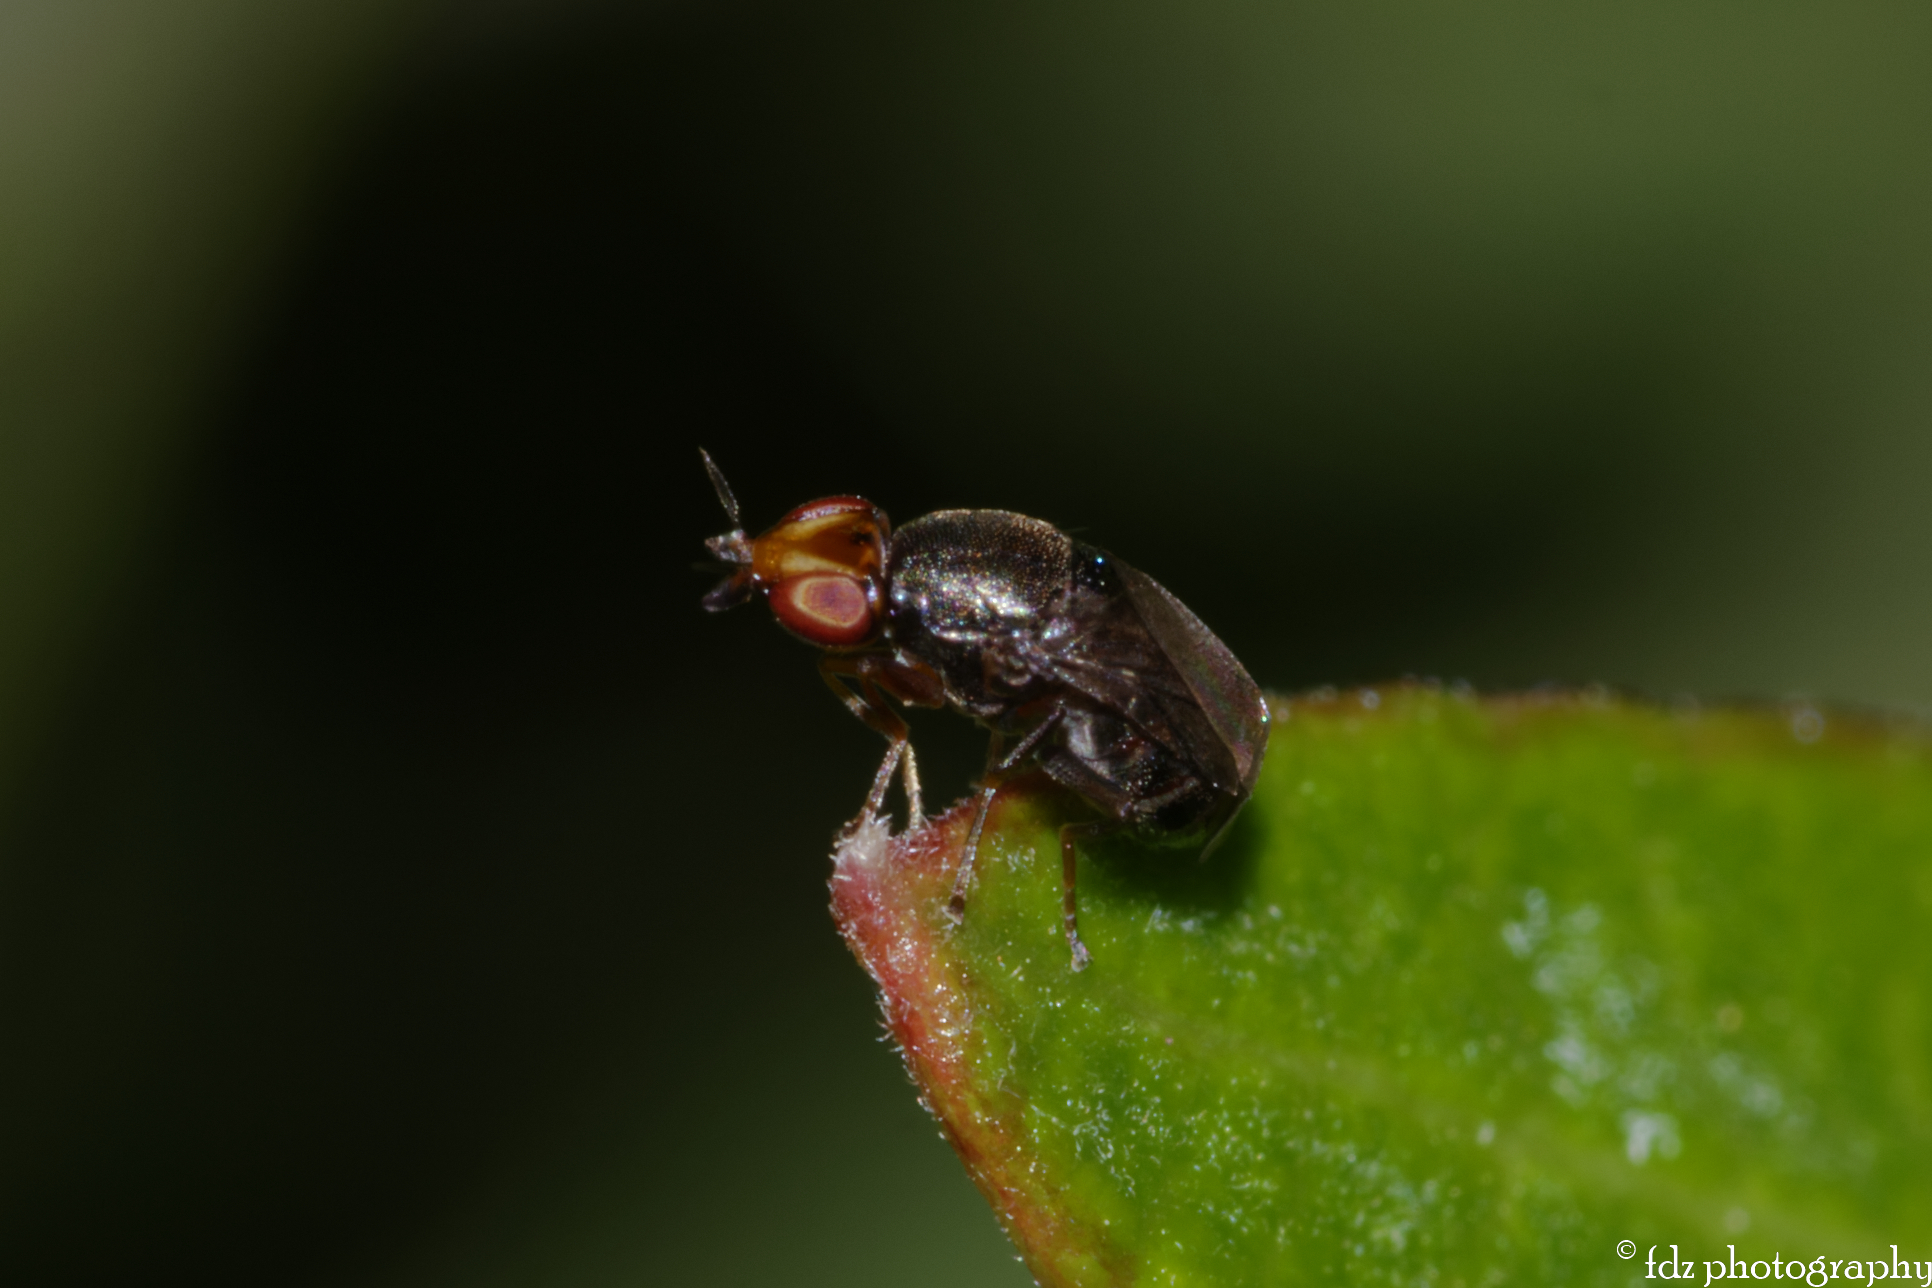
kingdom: Animalia
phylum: Arthropoda
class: Insecta
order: Diptera
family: Chloropidae
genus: Camarota
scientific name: Camarota curvipennis
